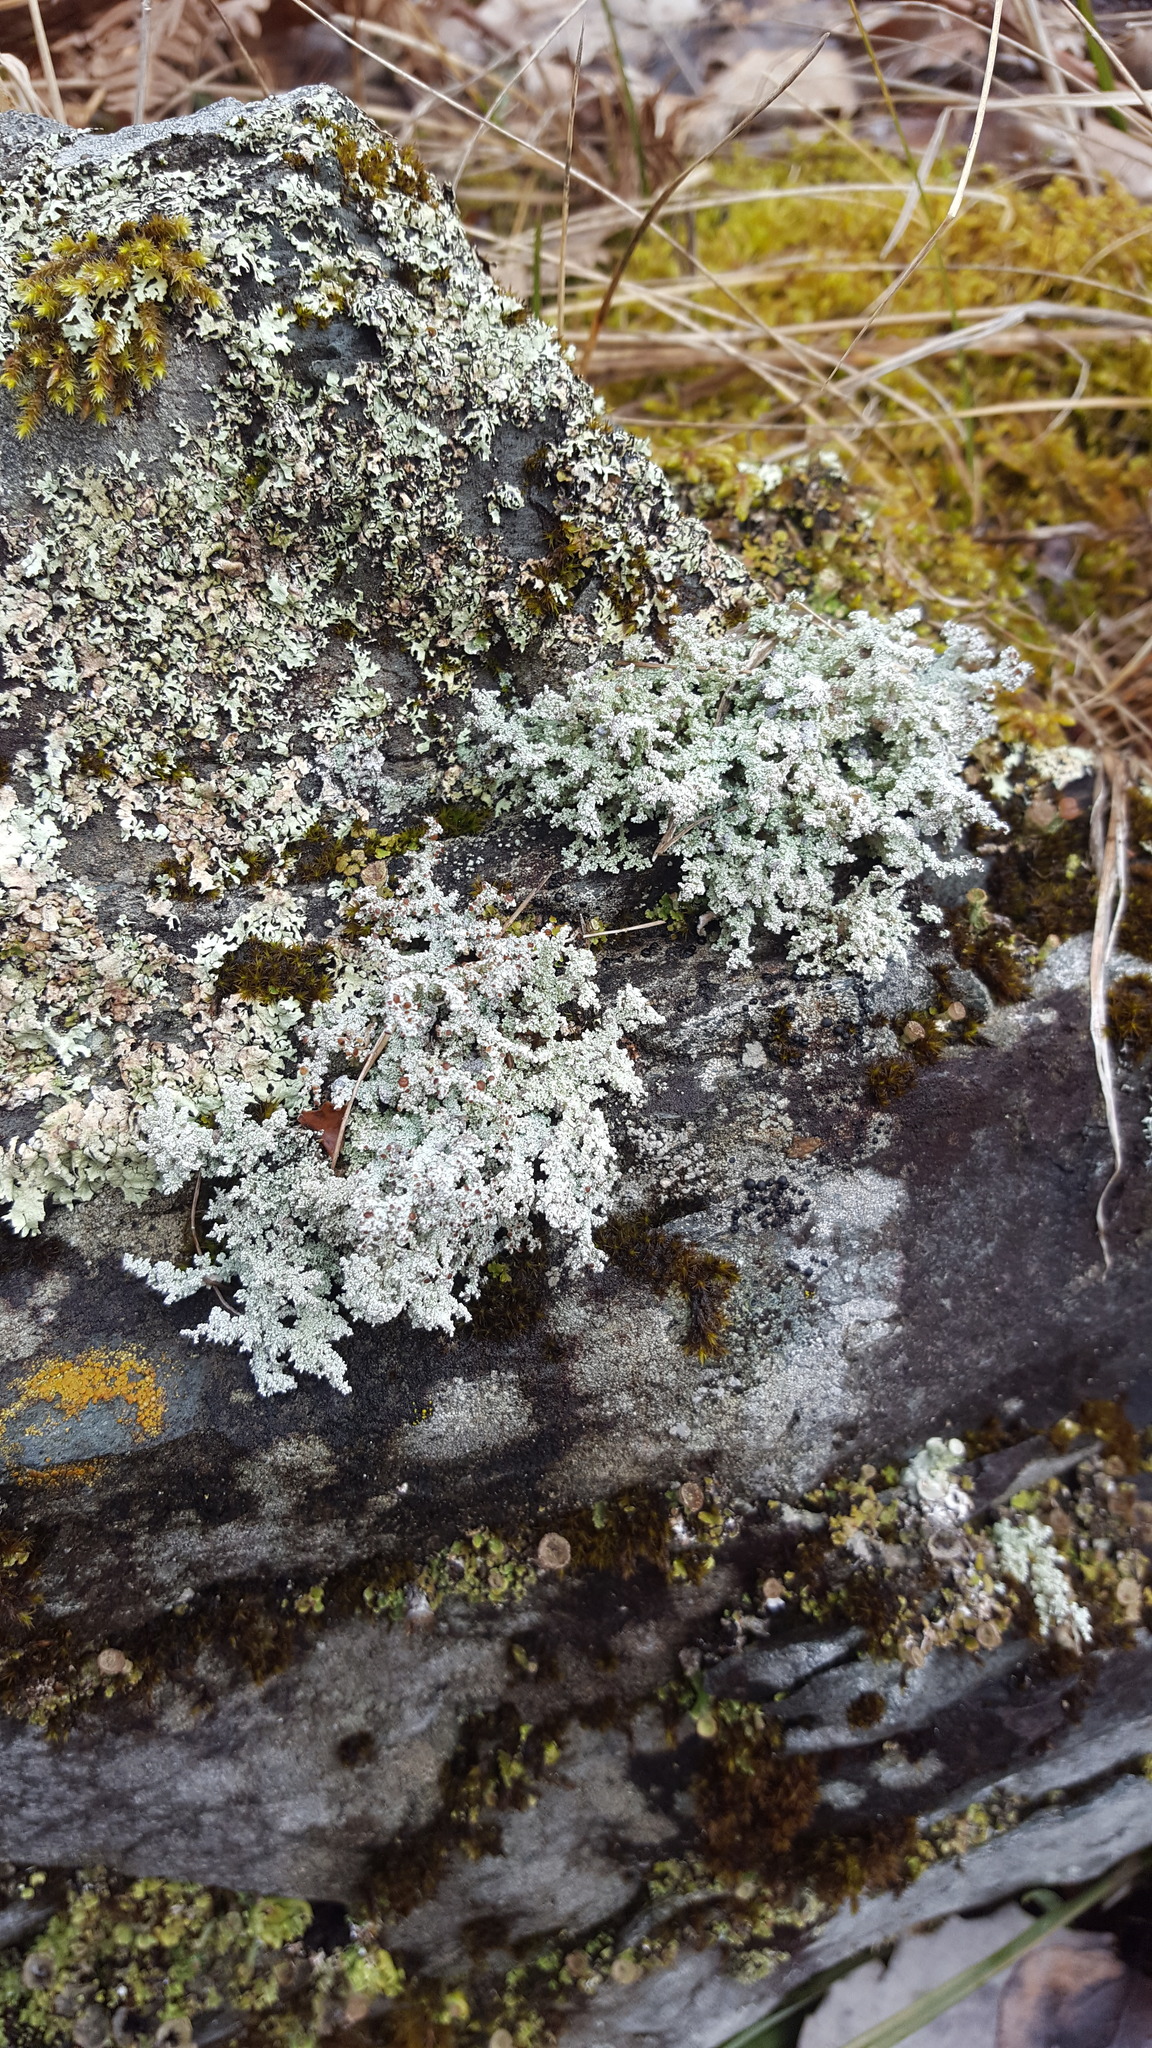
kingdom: Fungi
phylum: Ascomycota
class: Lecanoromycetes
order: Lecanorales
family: Stereocaulaceae
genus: Stereocaulon
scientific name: Stereocaulon saxatile
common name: Rock foam
